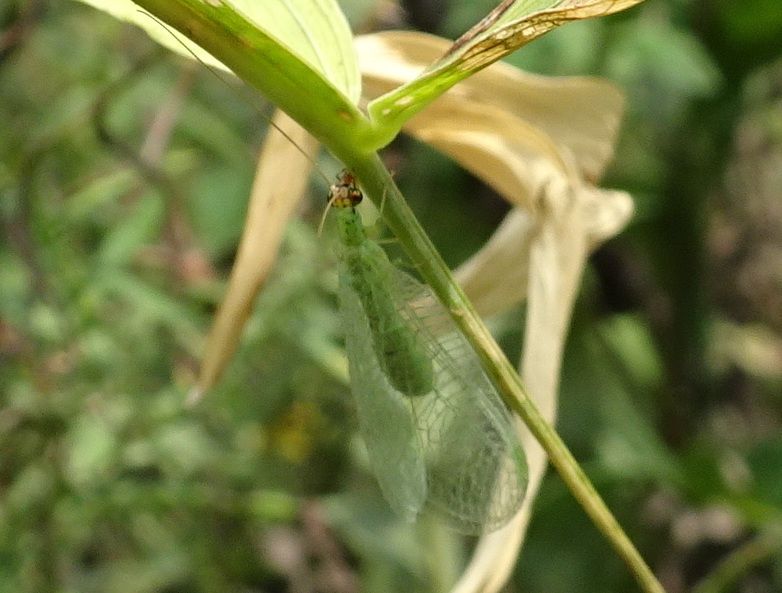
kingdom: Animalia
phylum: Arthropoda
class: Insecta
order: Neuroptera
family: Chrysopidae
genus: Chrysopa
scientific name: Chrysopa oculata
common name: Golden-eyed lacewing
